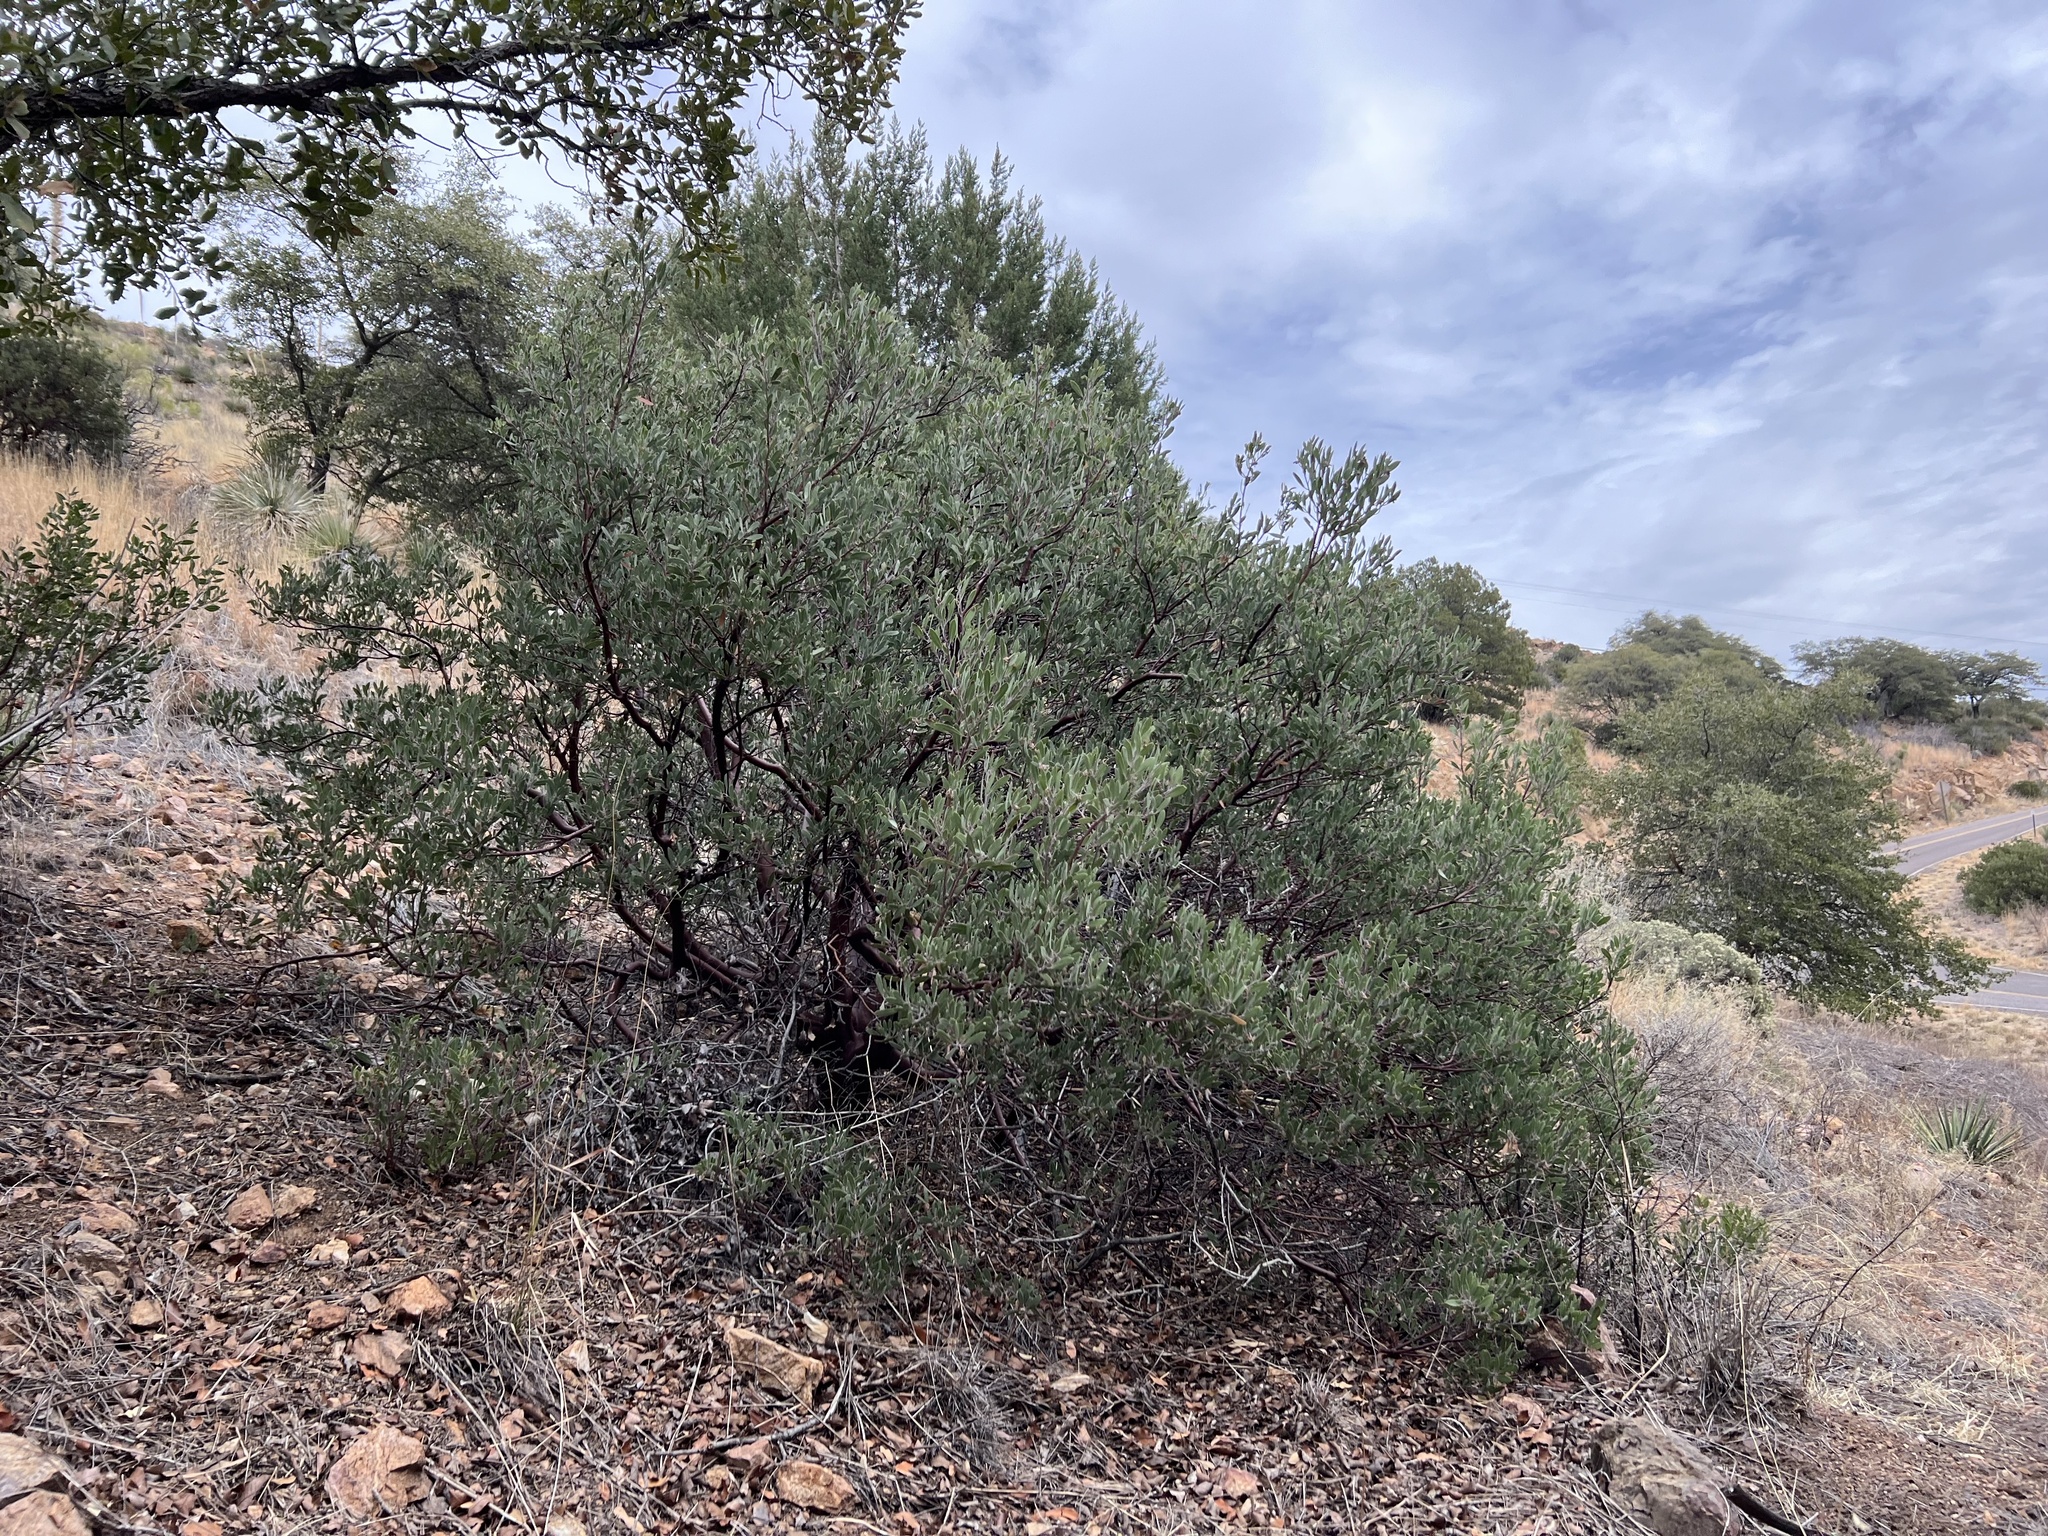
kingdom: Plantae
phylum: Tracheophyta
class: Magnoliopsida
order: Ericales
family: Ericaceae
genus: Arctostaphylos
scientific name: Arctostaphylos pungens
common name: Mexican manzanita
